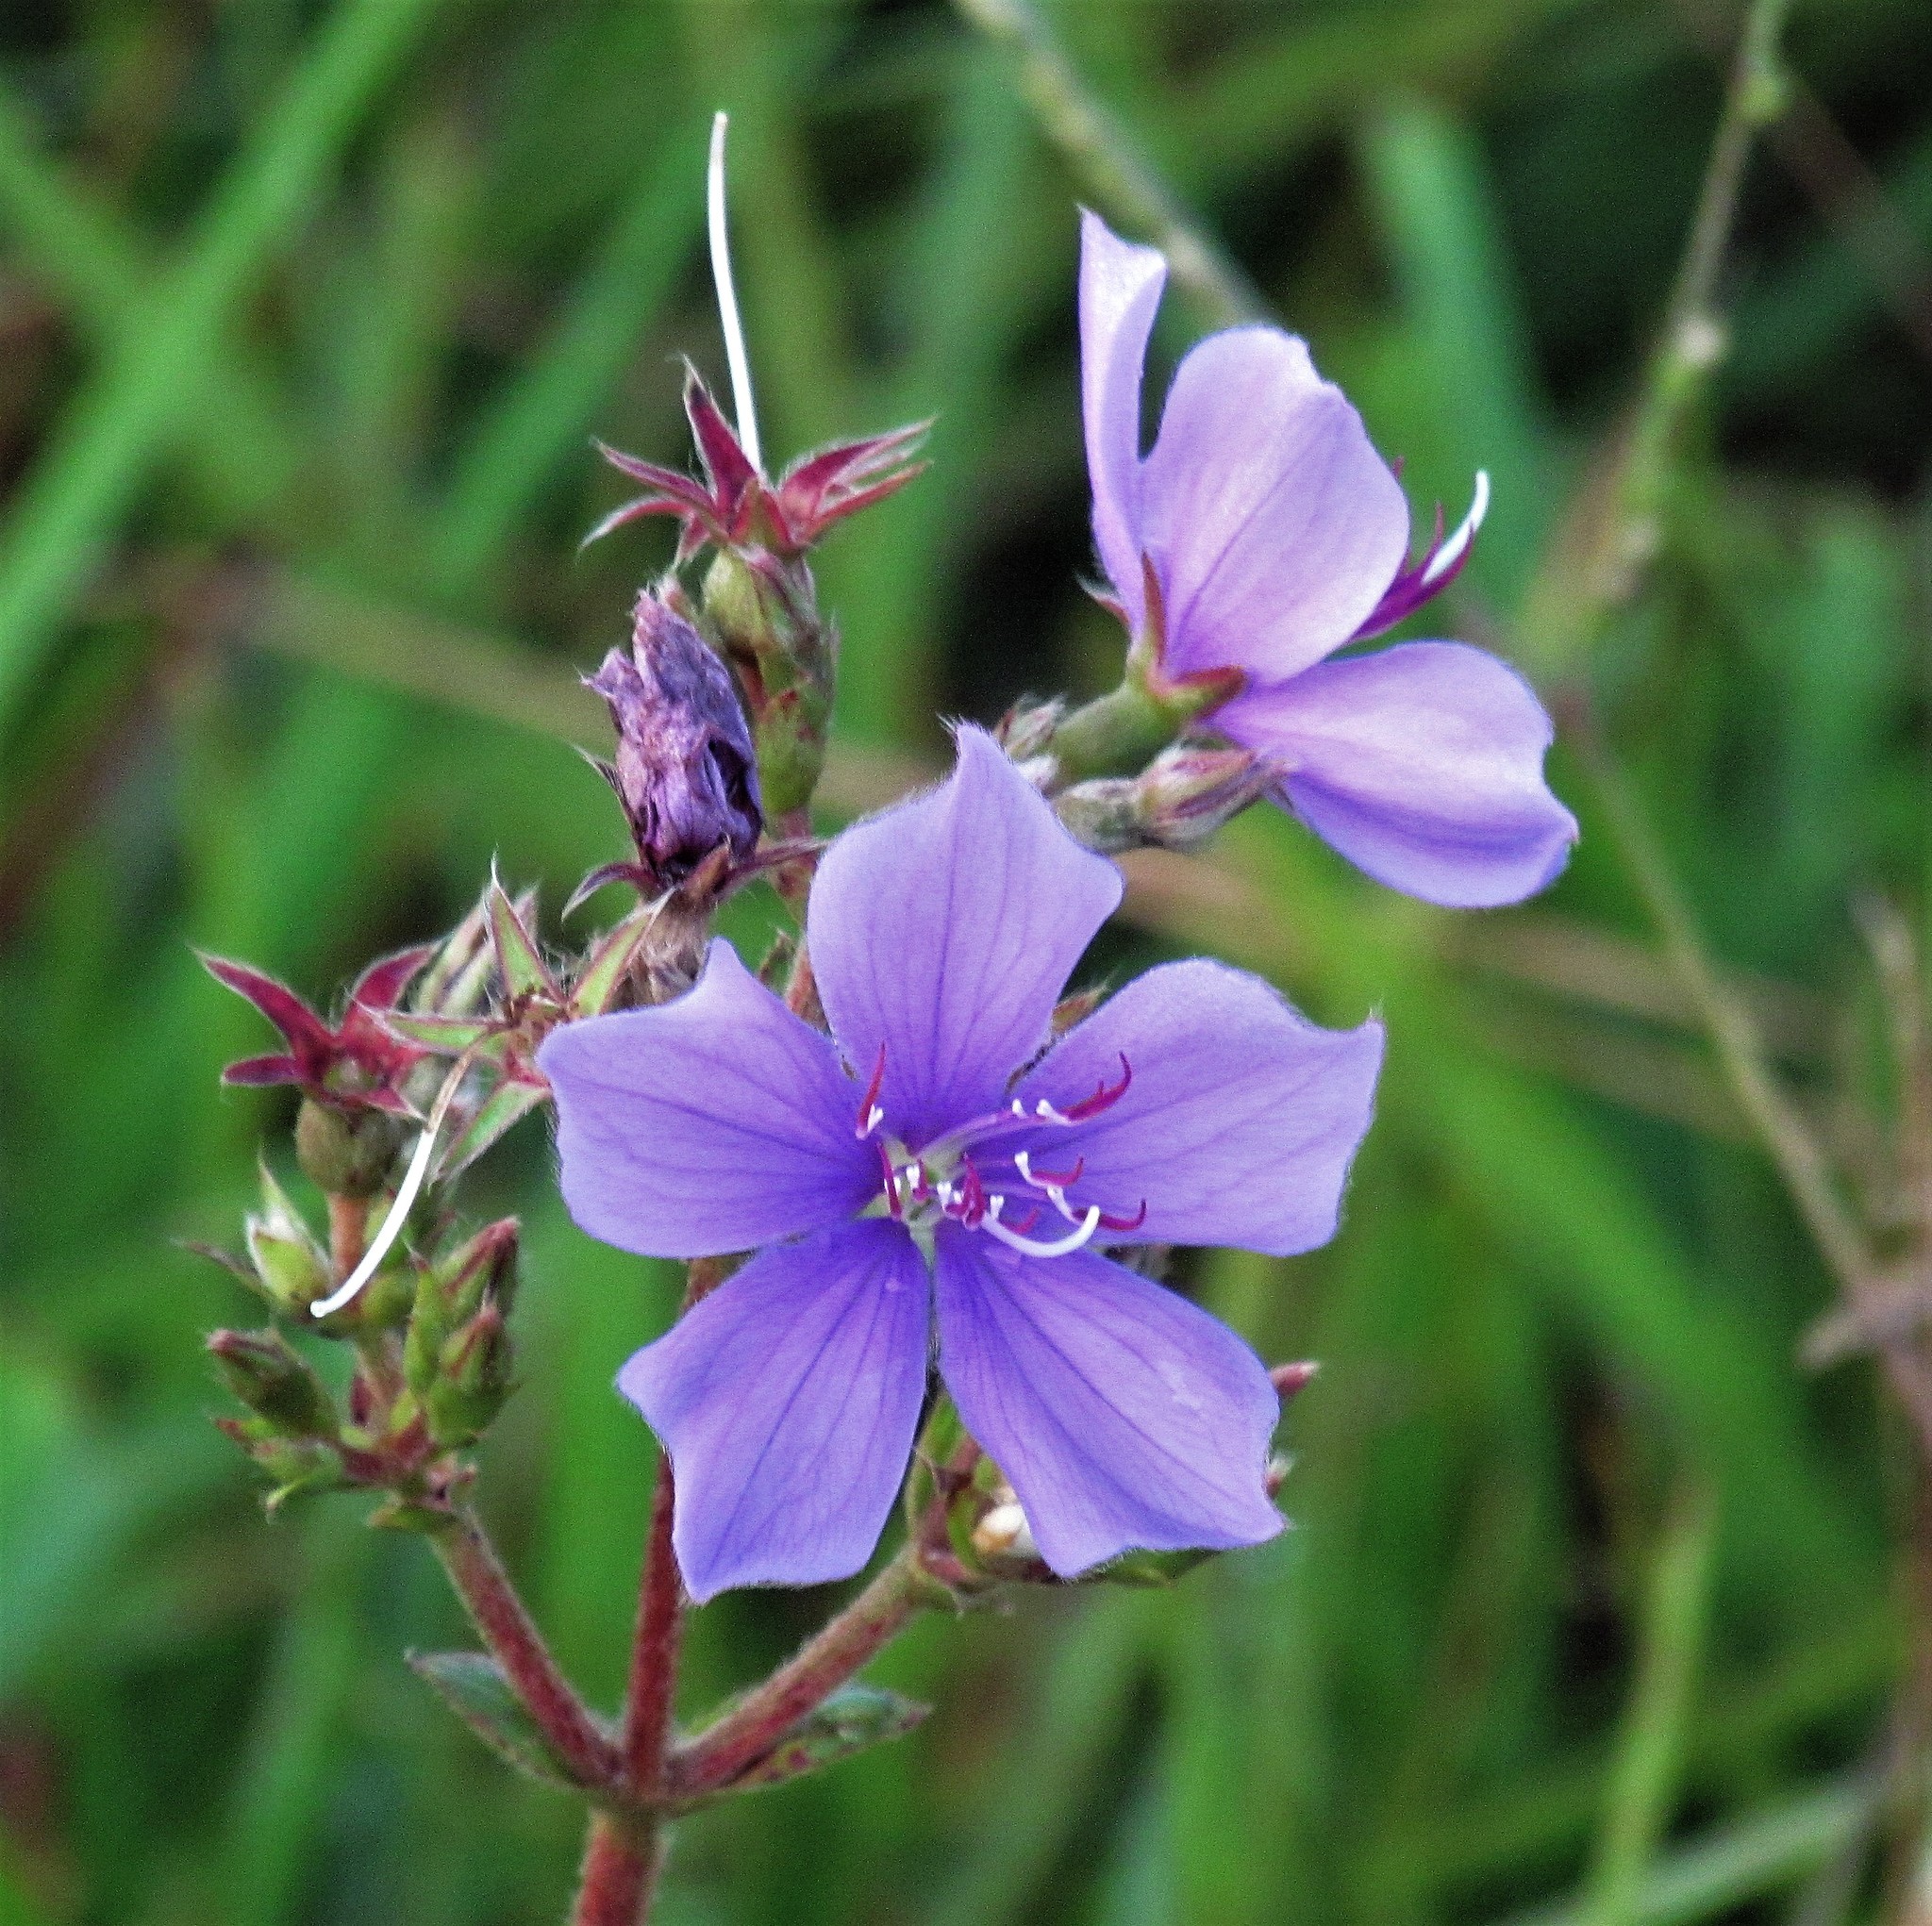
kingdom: Plantae
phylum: Tracheophyta
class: Magnoliopsida
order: Myrtales
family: Melastomataceae
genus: Chaetogastra
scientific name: Chaetogastra gracilis
